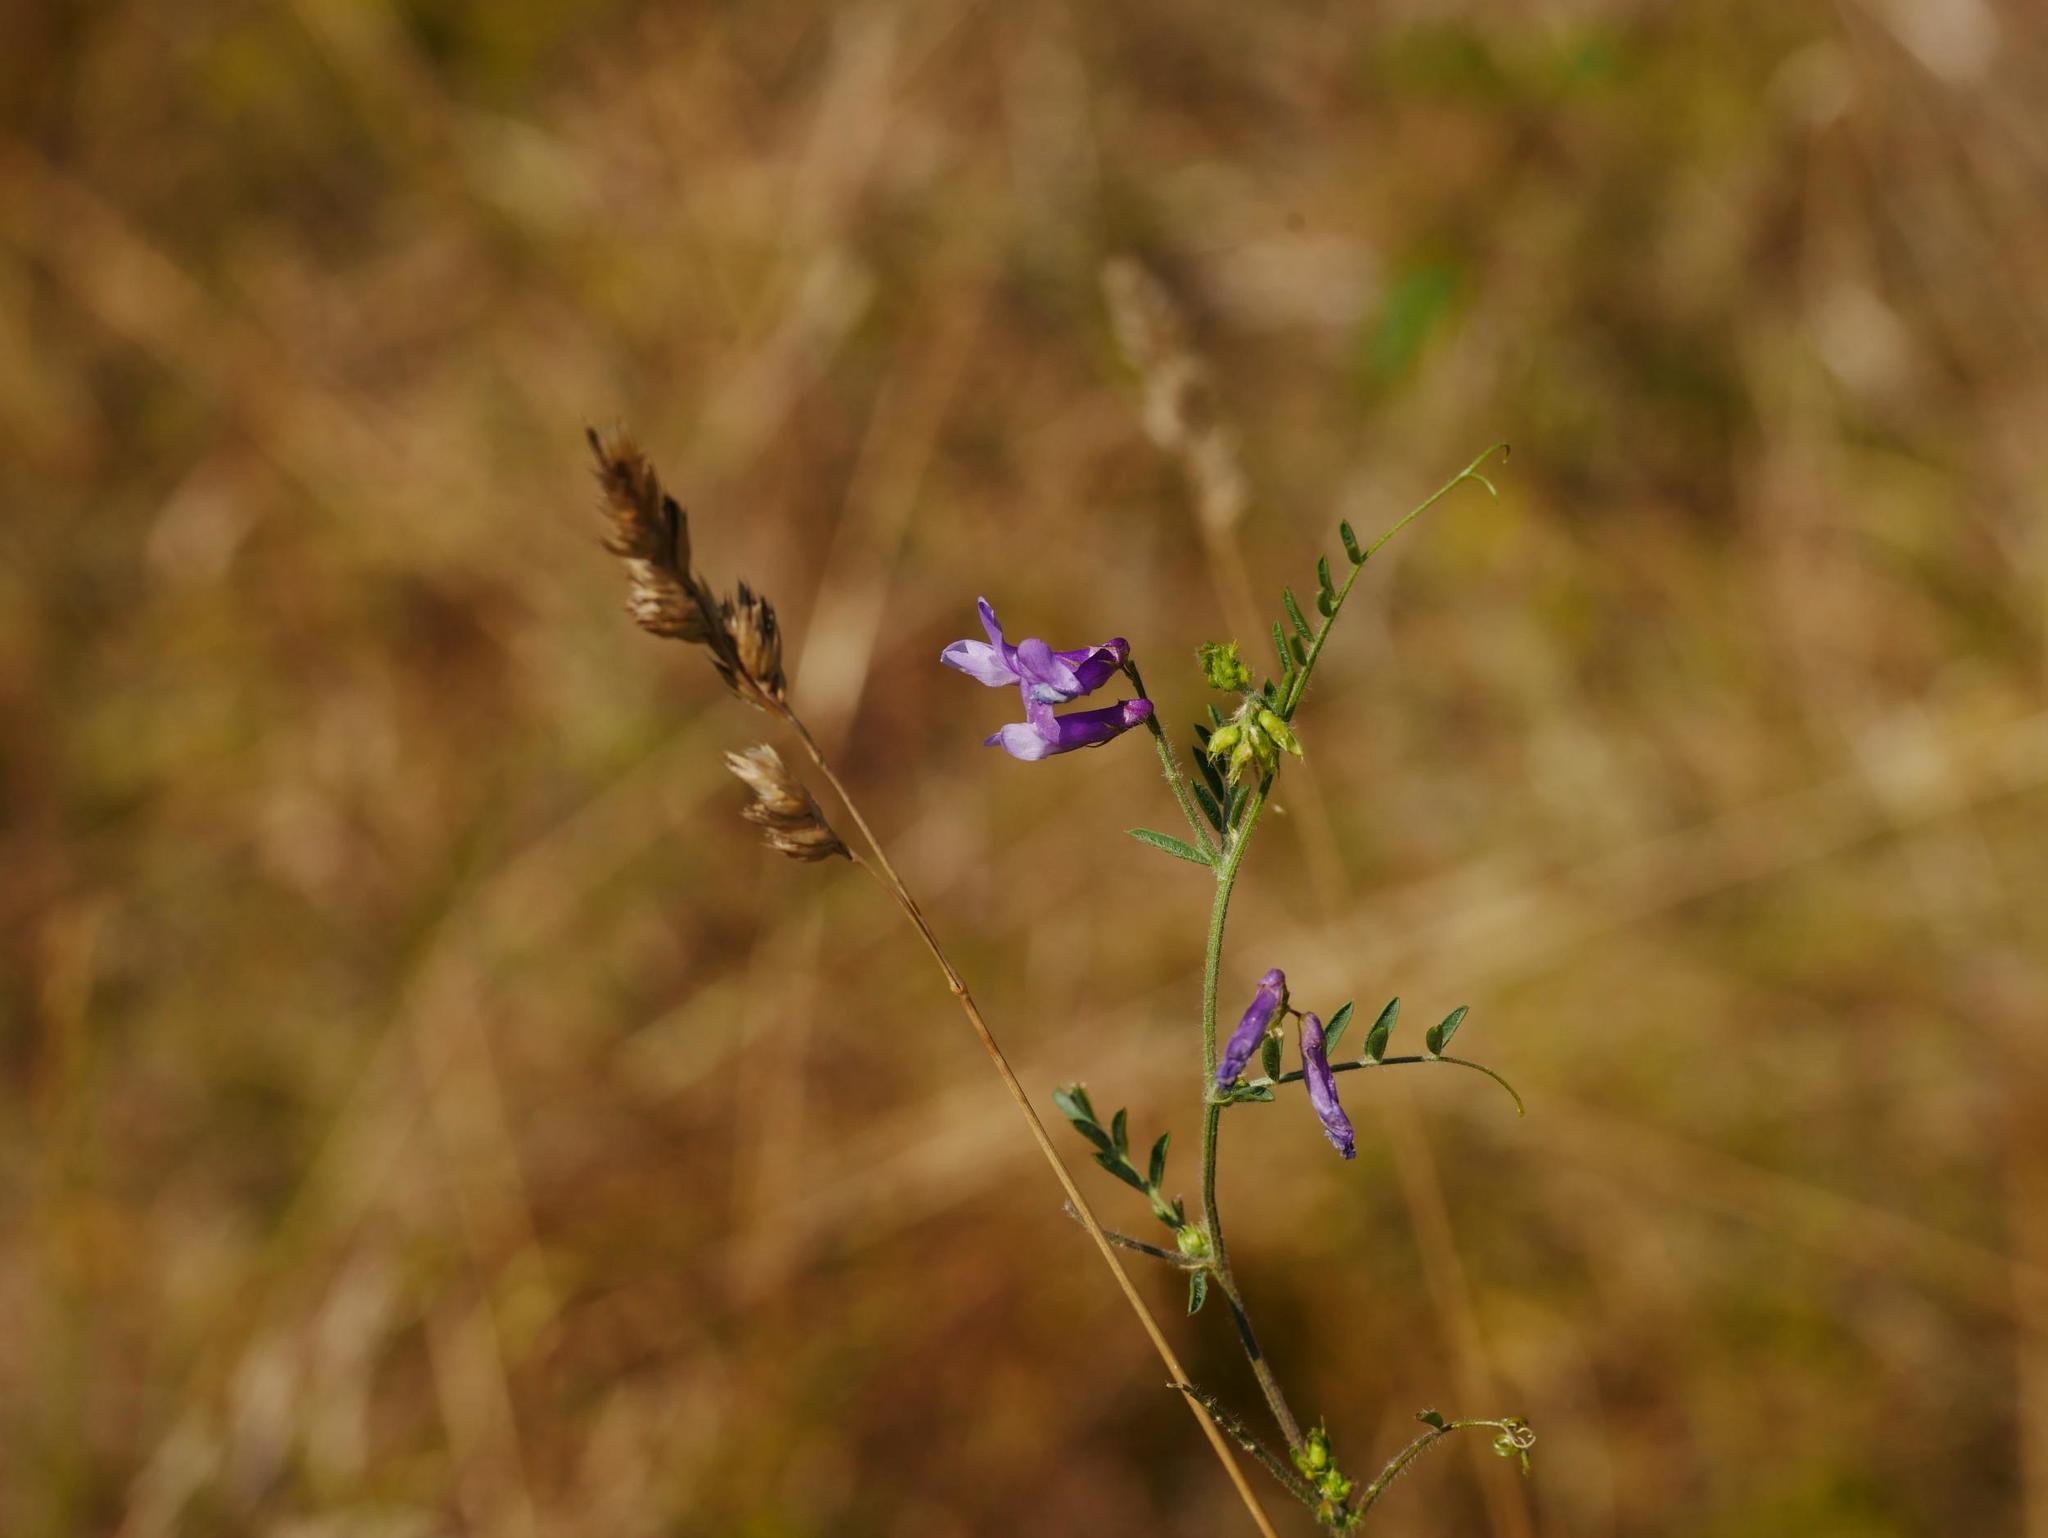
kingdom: Plantae
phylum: Tracheophyta
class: Magnoliopsida
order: Fabales
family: Fabaceae
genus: Vicia
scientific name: Vicia villosa
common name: Fodder vetch
